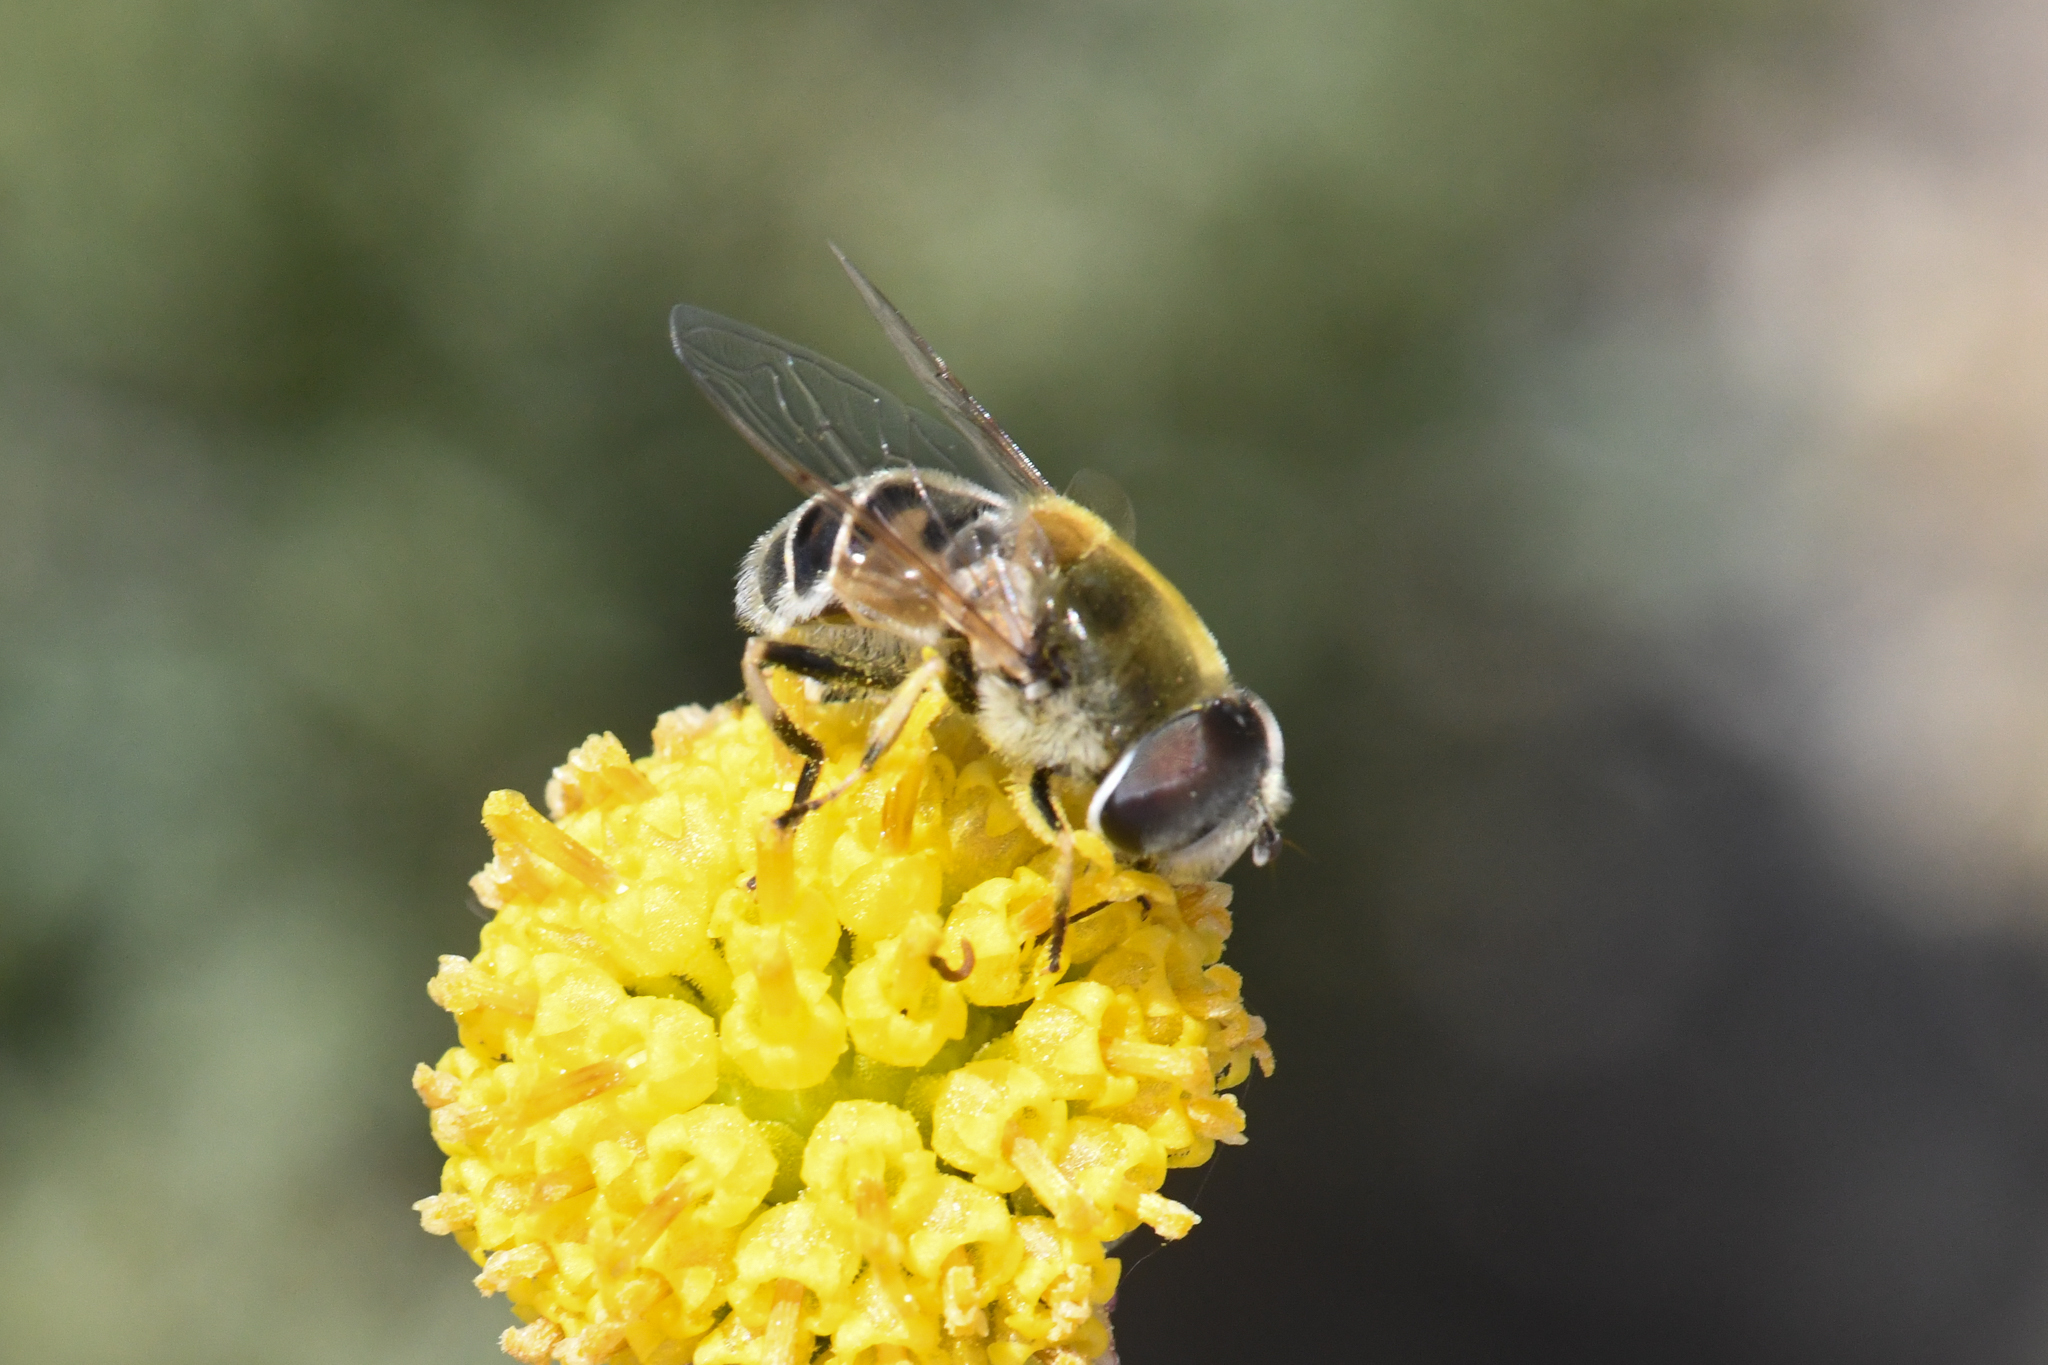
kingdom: Animalia
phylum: Arthropoda
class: Insecta
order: Diptera
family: Syrphidae
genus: Eristalis
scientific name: Eristalis stipator
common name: Yellow-shouldered drone fly
